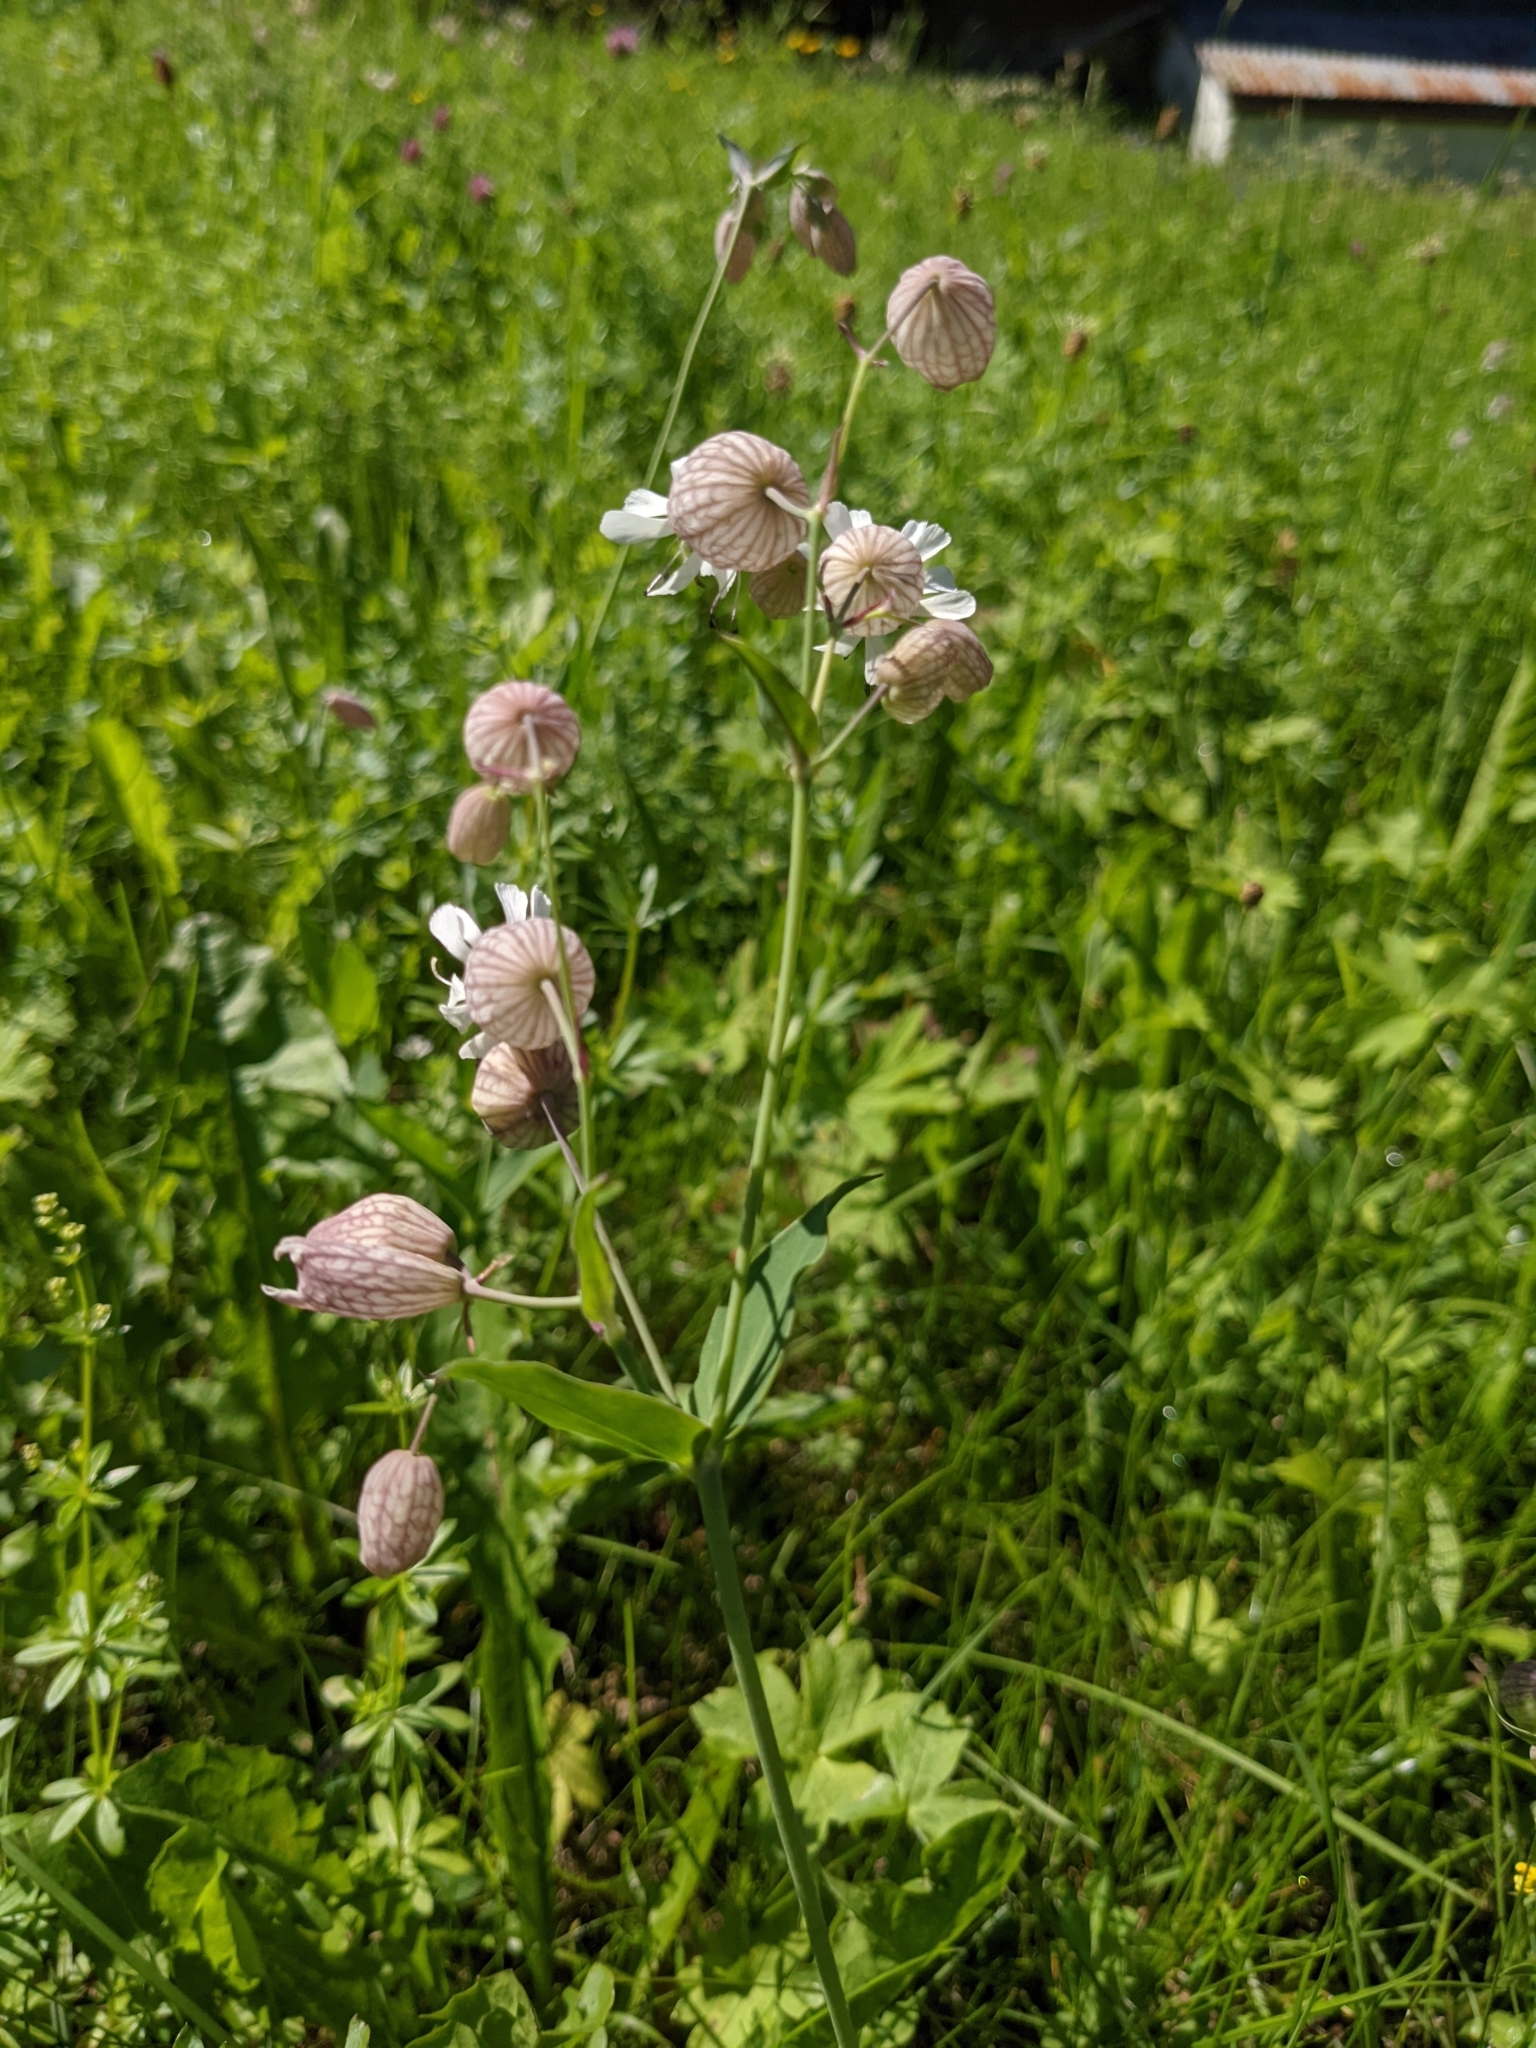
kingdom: Plantae
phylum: Tracheophyta
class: Magnoliopsida
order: Caryophyllales
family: Caryophyllaceae
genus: Silene
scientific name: Silene vulgaris
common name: Bladder campion
